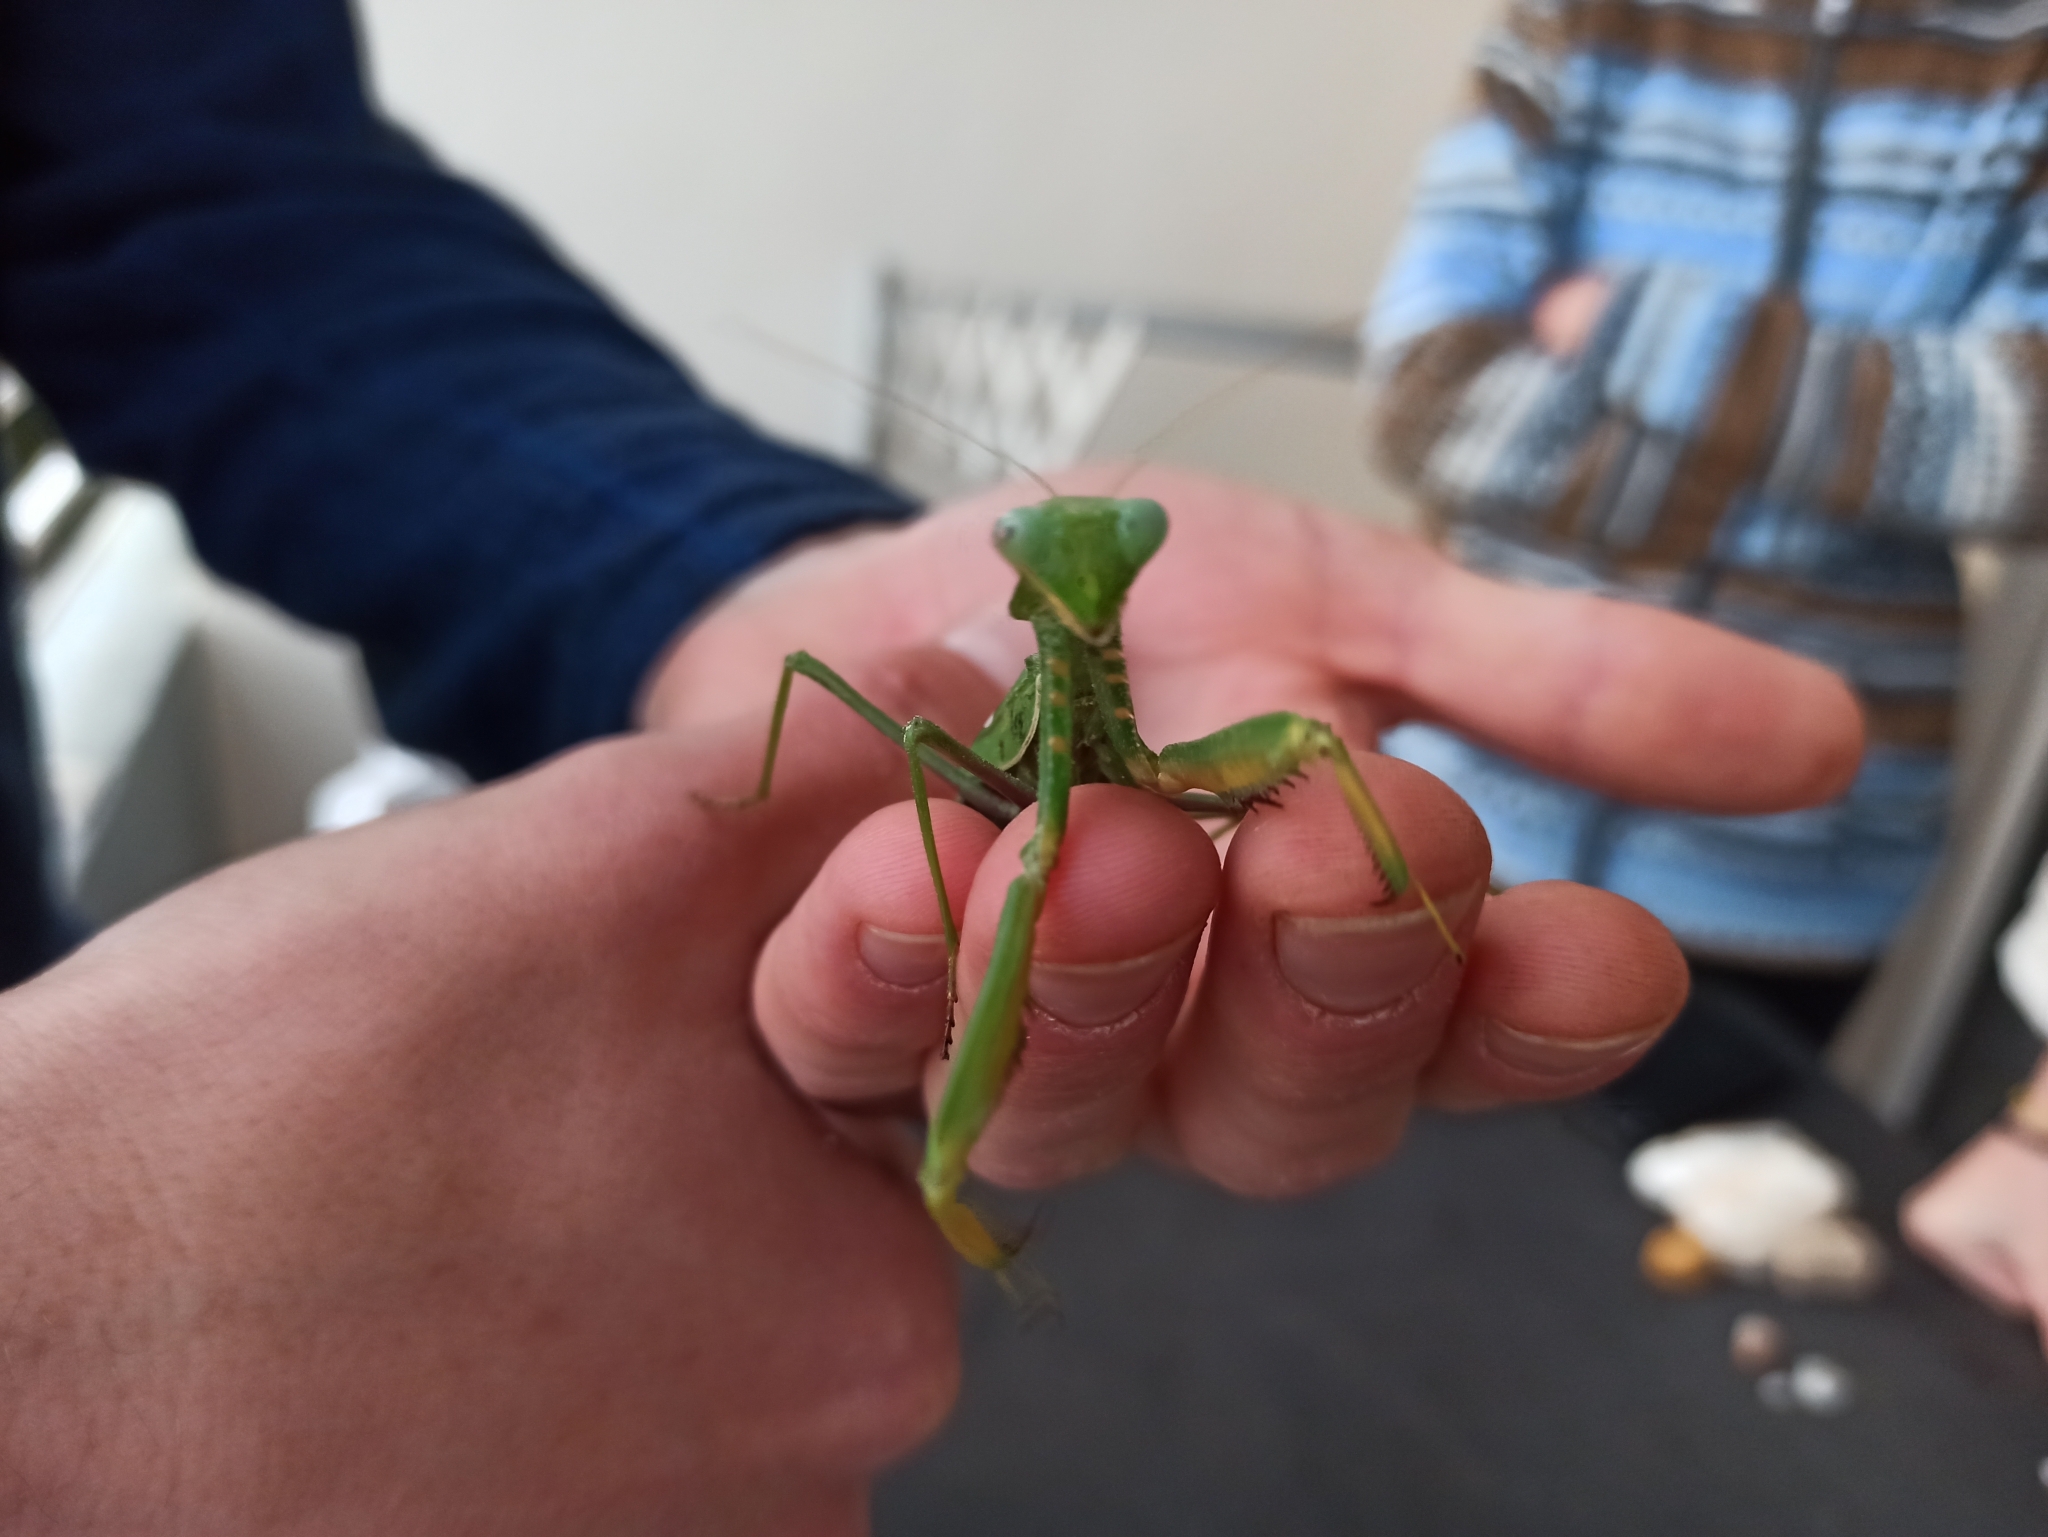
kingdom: Animalia
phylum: Arthropoda
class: Insecta
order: Mantodea
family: Mantidae
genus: Sphodromantis
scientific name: Sphodromantis viridis
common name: Giant african mantis
